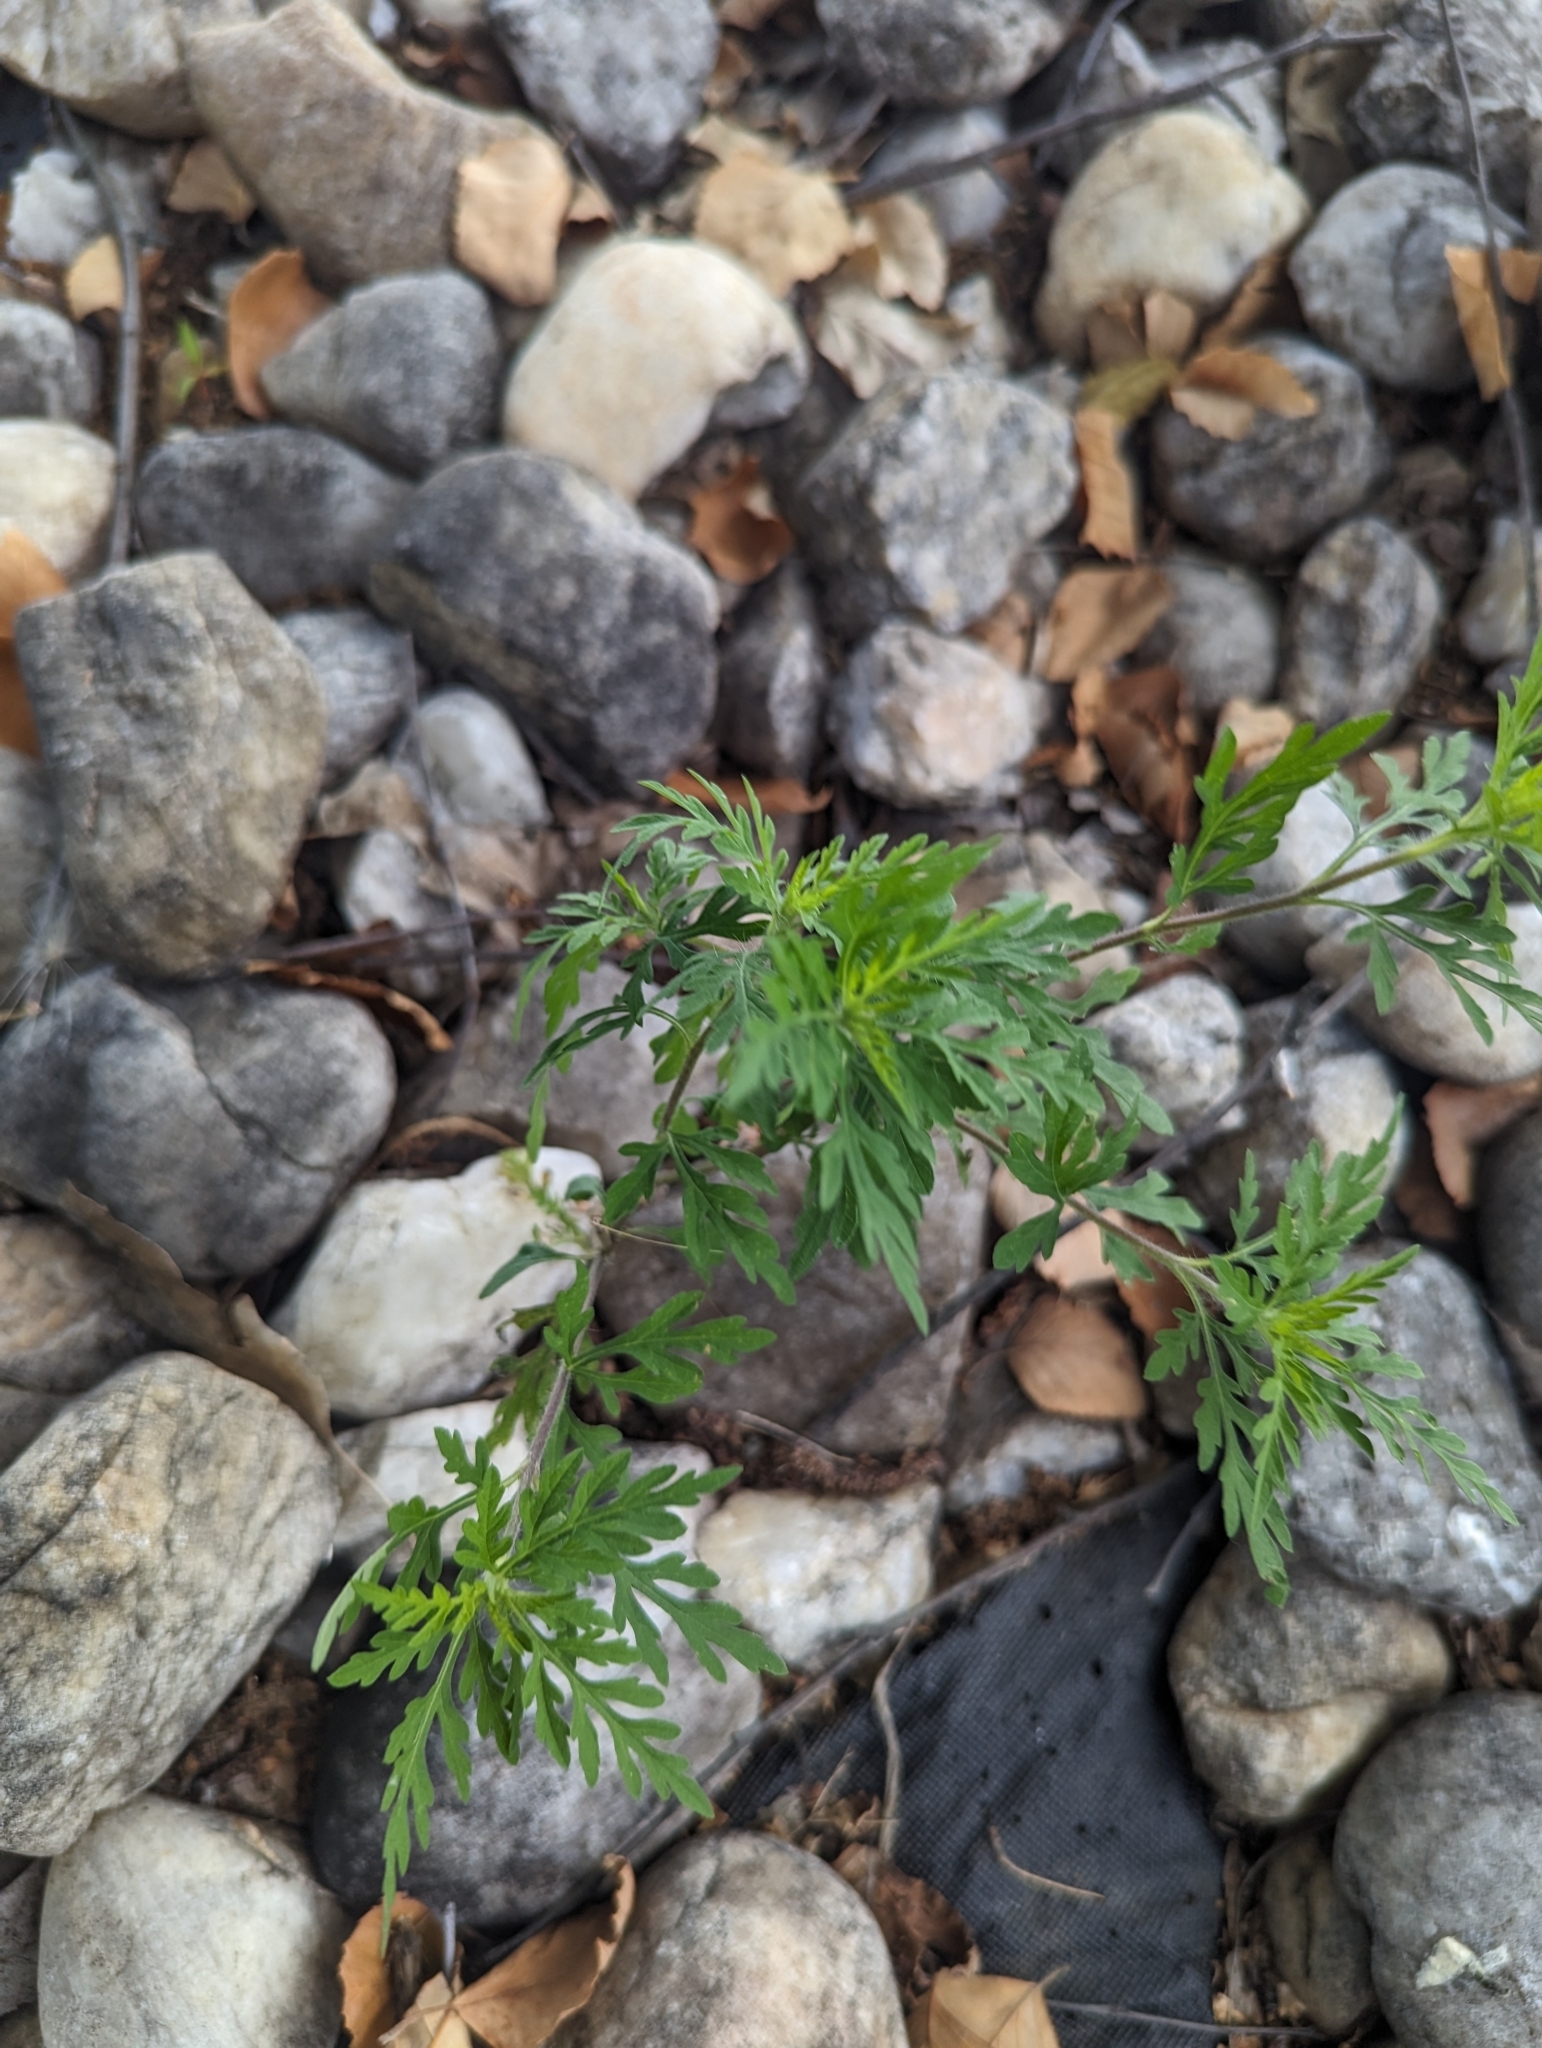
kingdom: Plantae
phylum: Tracheophyta
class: Magnoliopsida
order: Asterales
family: Asteraceae
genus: Ambrosia
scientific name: Ambrosia artemisiifolia
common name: Annual ragweed
